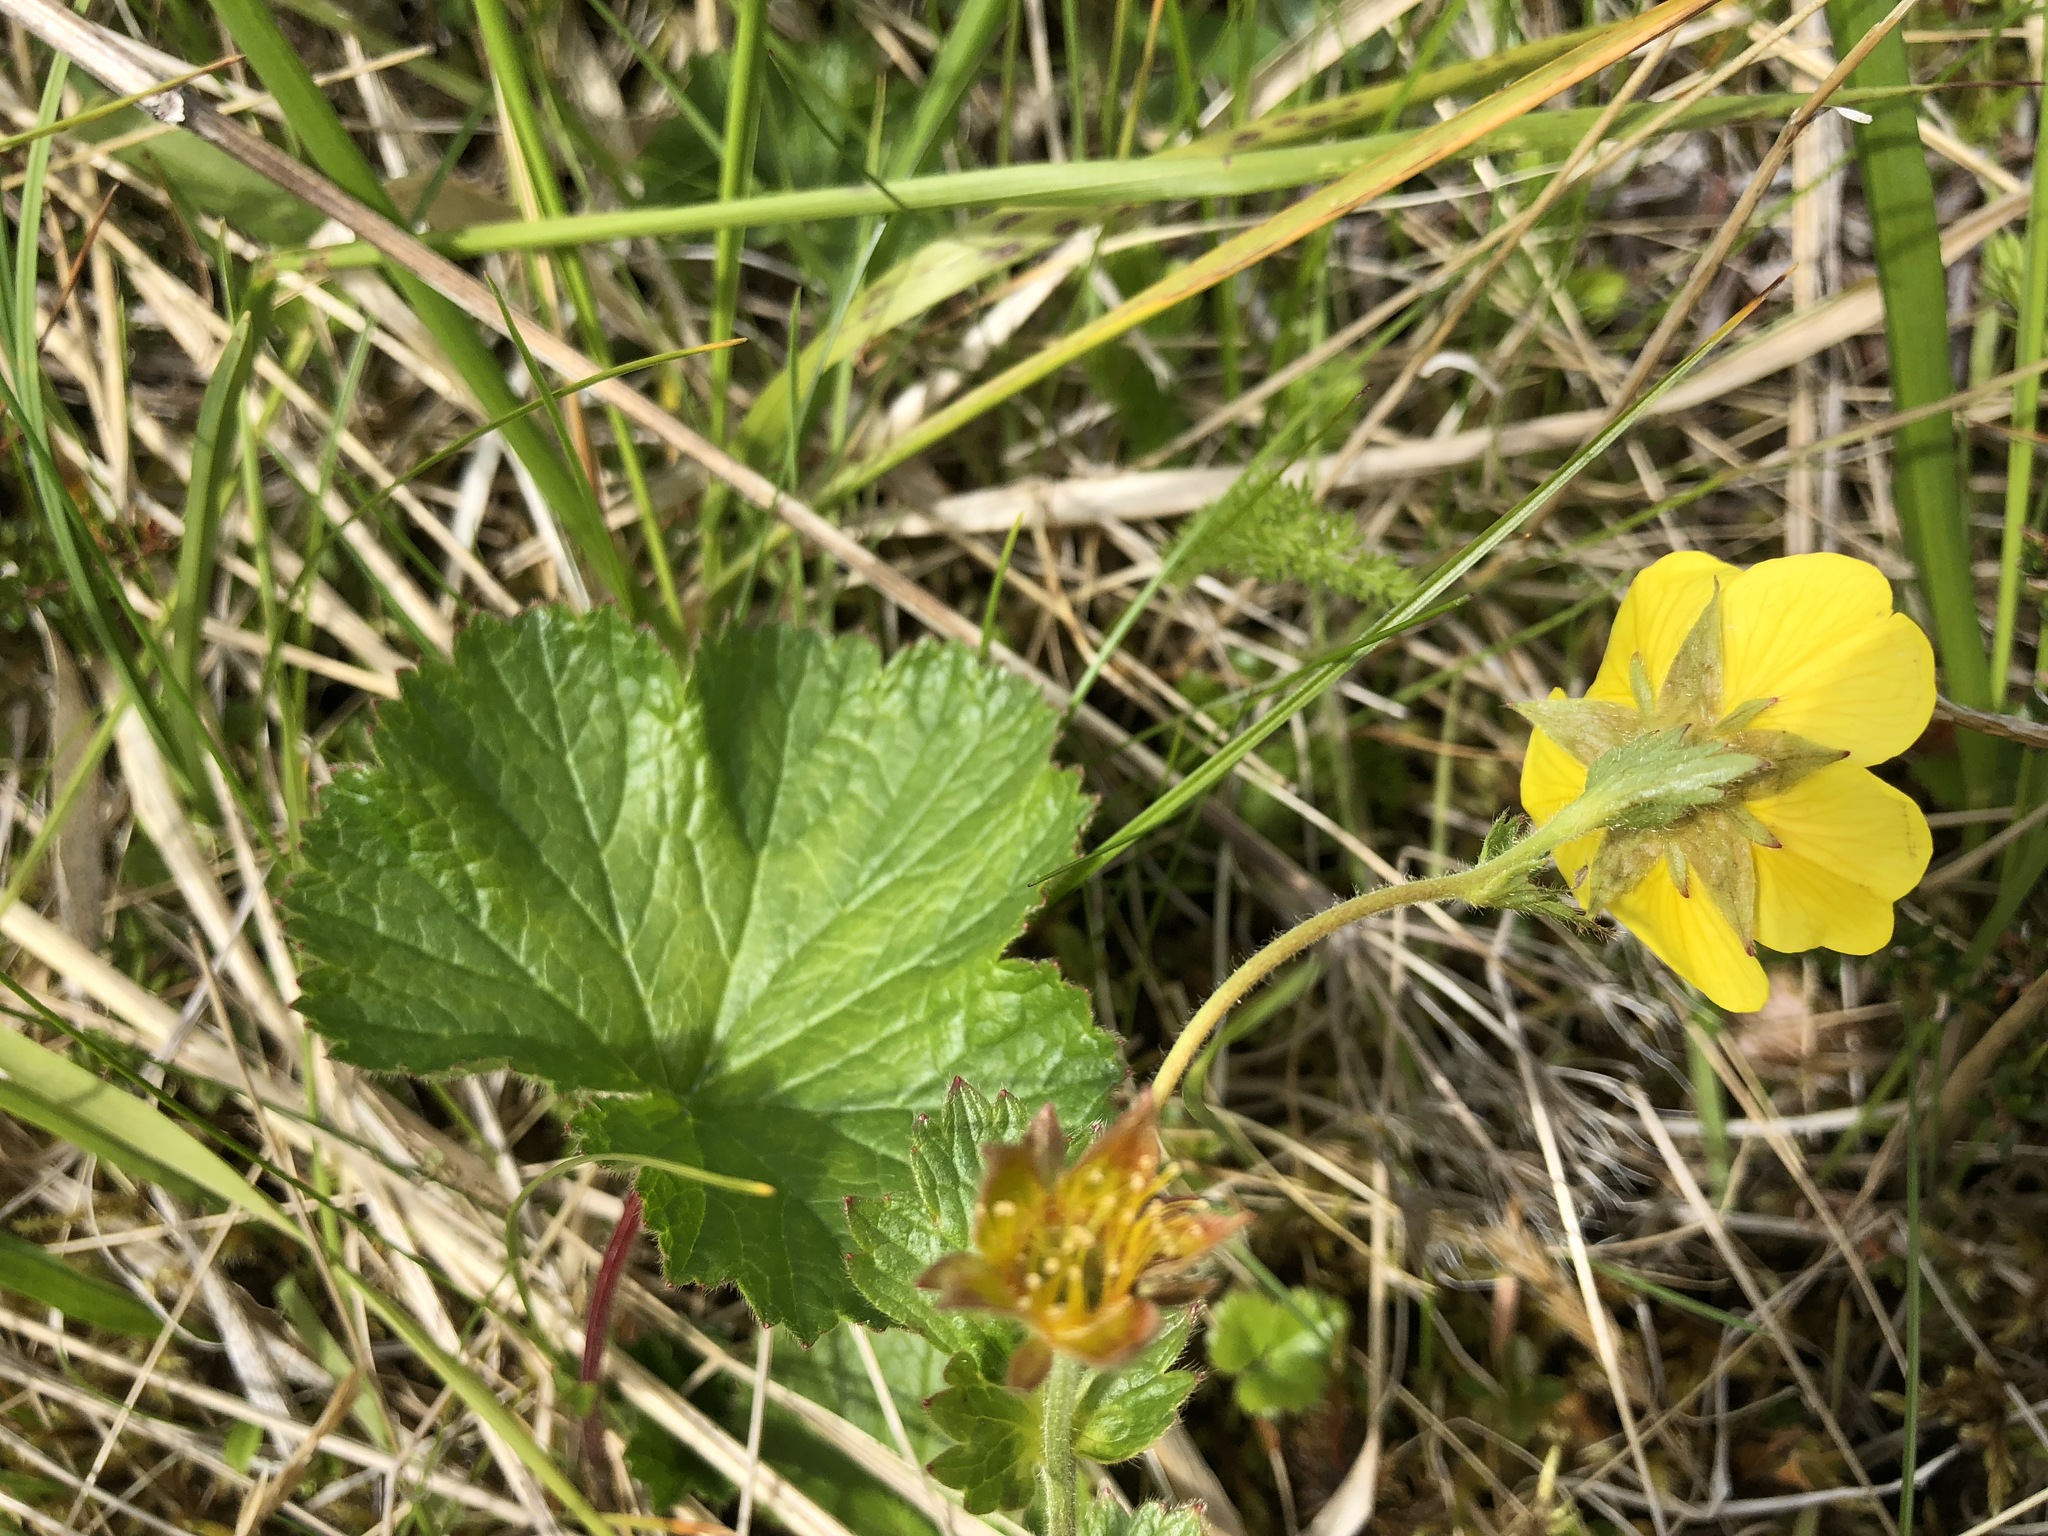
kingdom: Plantae
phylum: Tracheophyta
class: Magnoliopsida
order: Rosales
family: Rosaceae
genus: Geum
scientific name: Geum calthifolium
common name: Caltha-leaved avens
